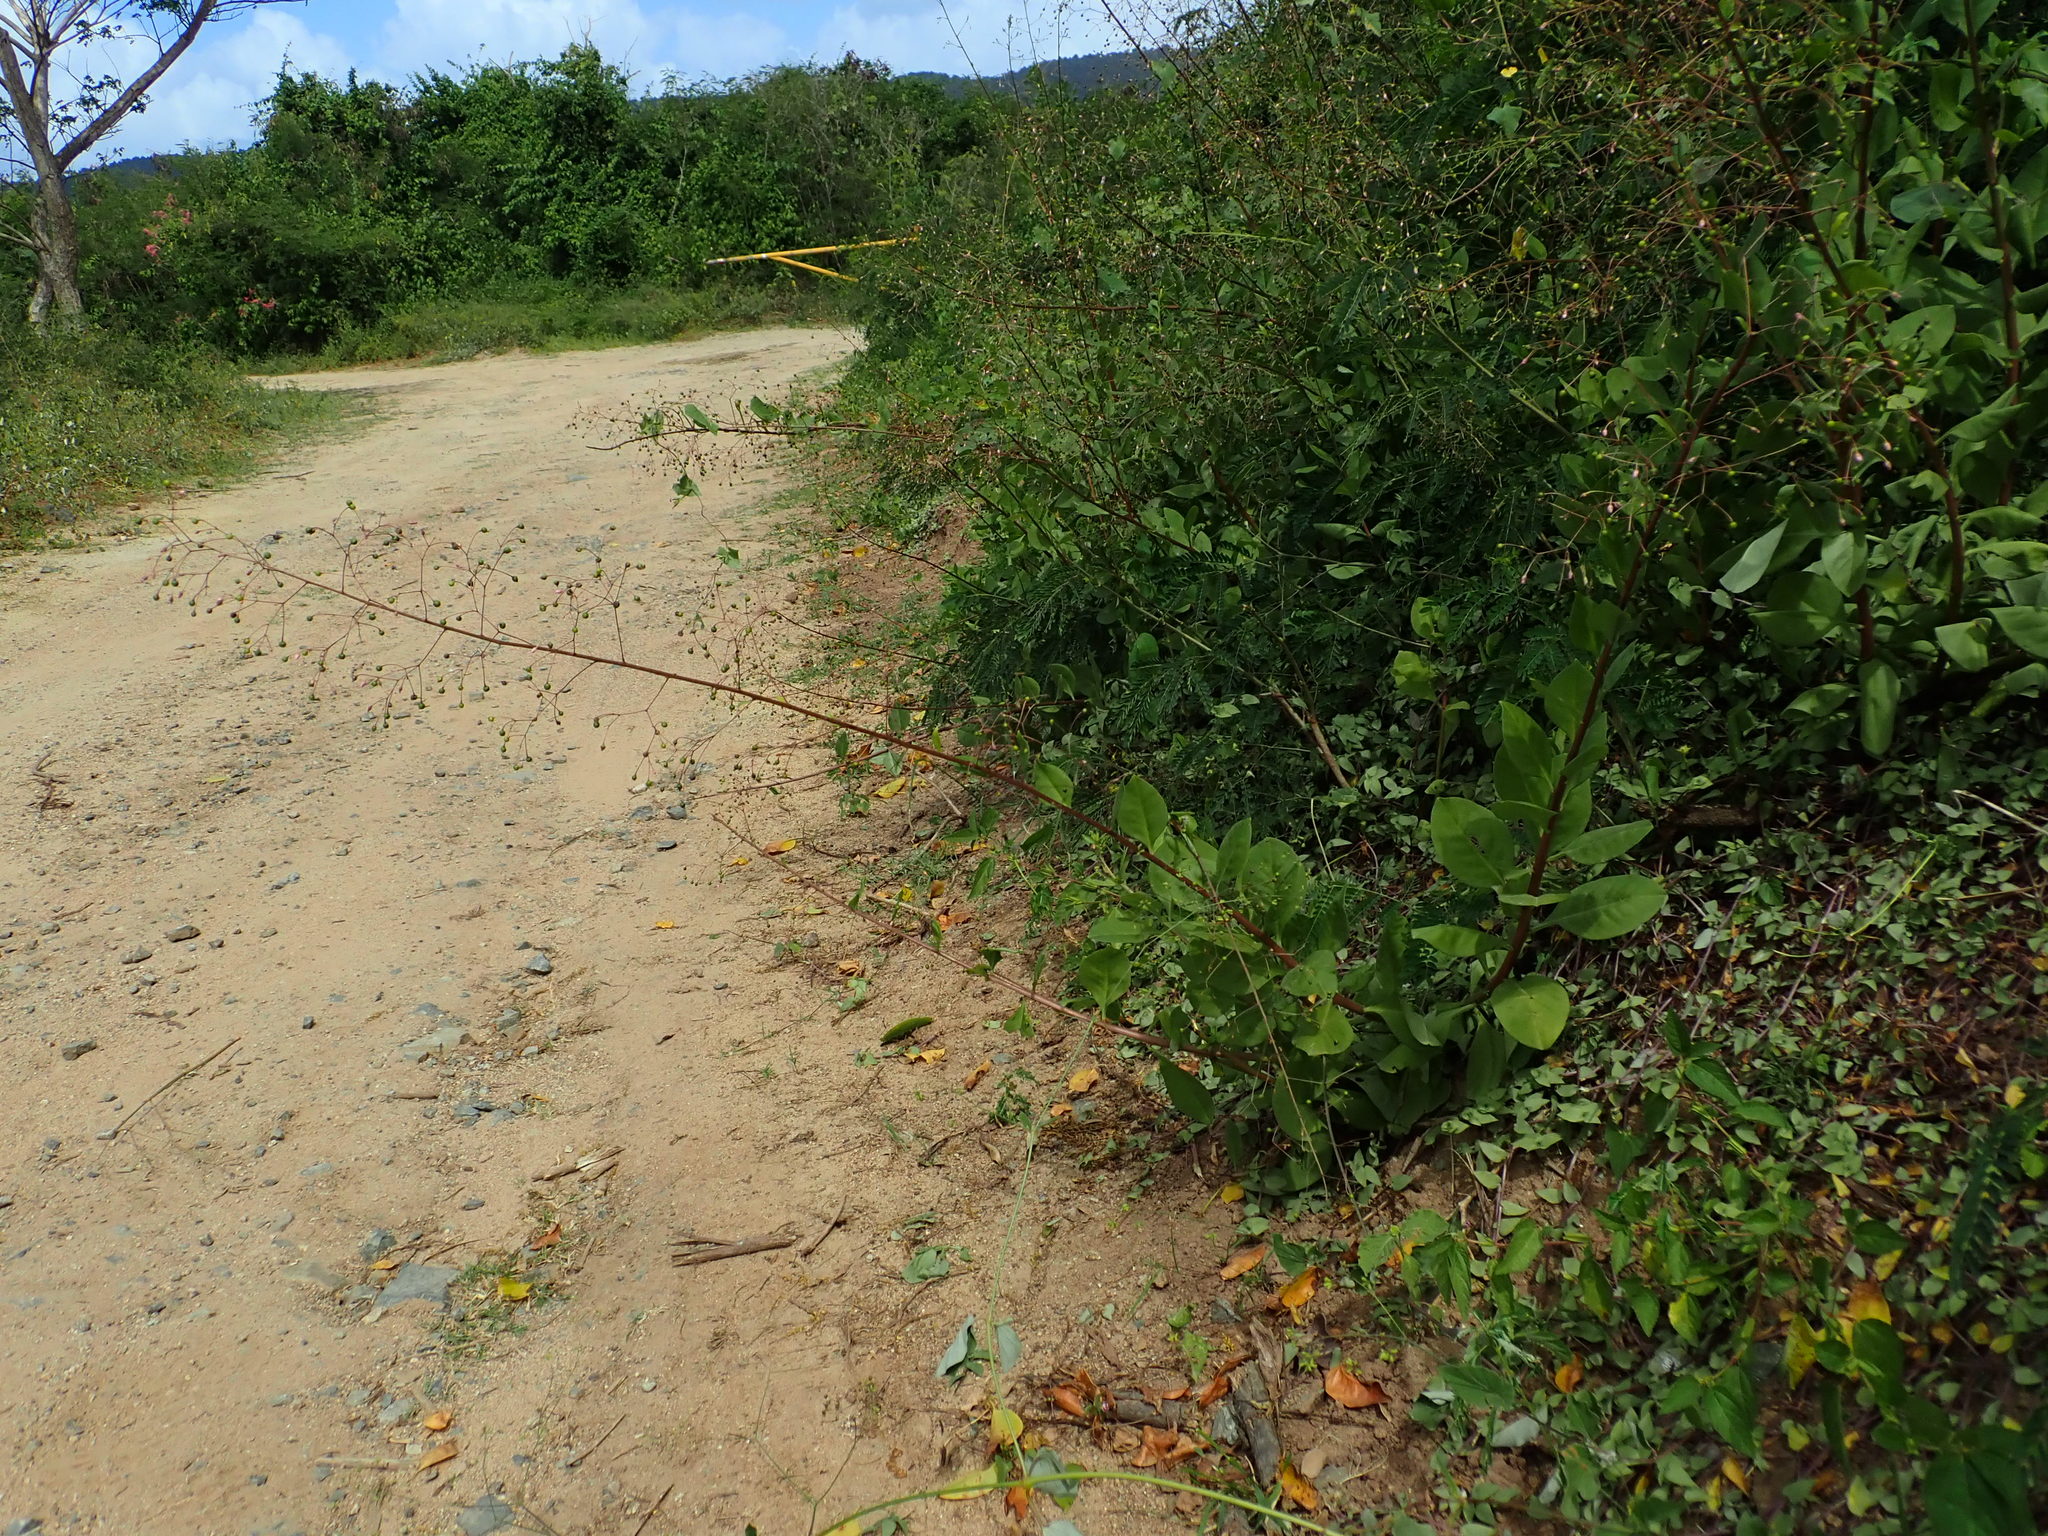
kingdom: Plantae
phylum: Tracheophyta
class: Magnoliopsida
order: Caryophyllales
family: Talinaceae
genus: Talinum
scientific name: Talinum paniculatum
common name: Jewels of opar
